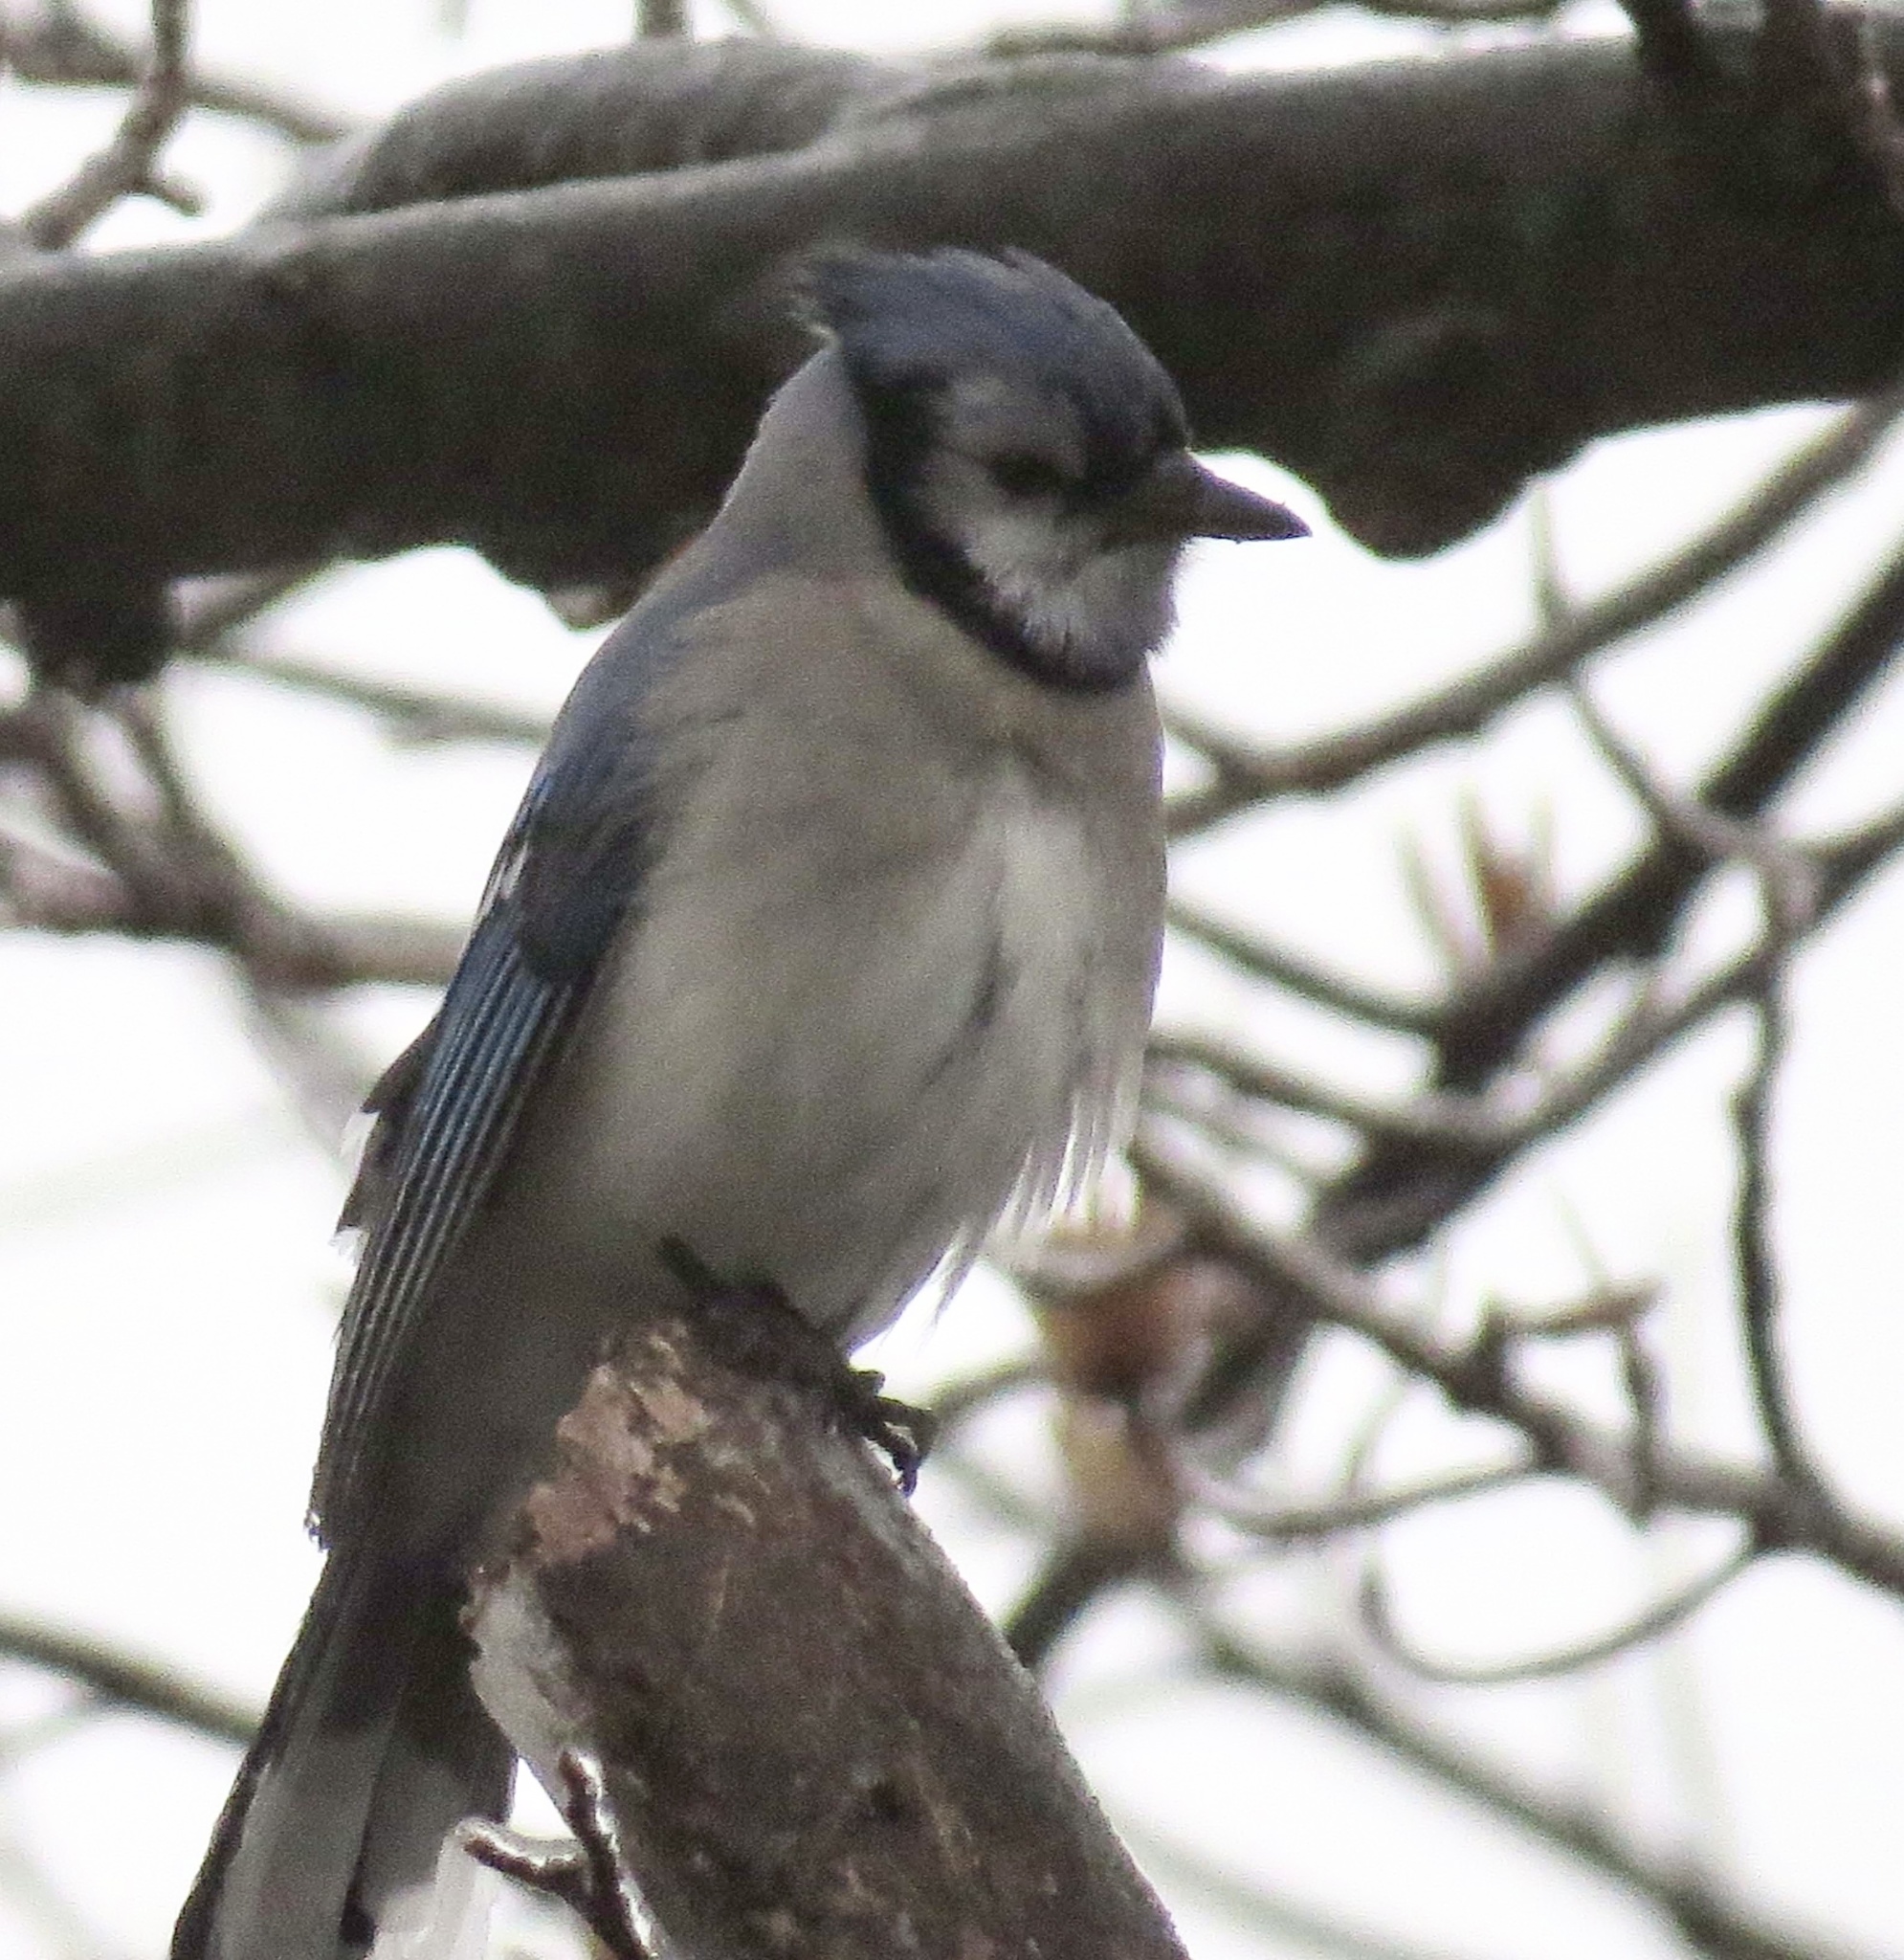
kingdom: Animalia
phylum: Chordata
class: Aves
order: Passeriformes
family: Corvidae
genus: Cyanocitta
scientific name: Cyanocitta cristata
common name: Blue jay
